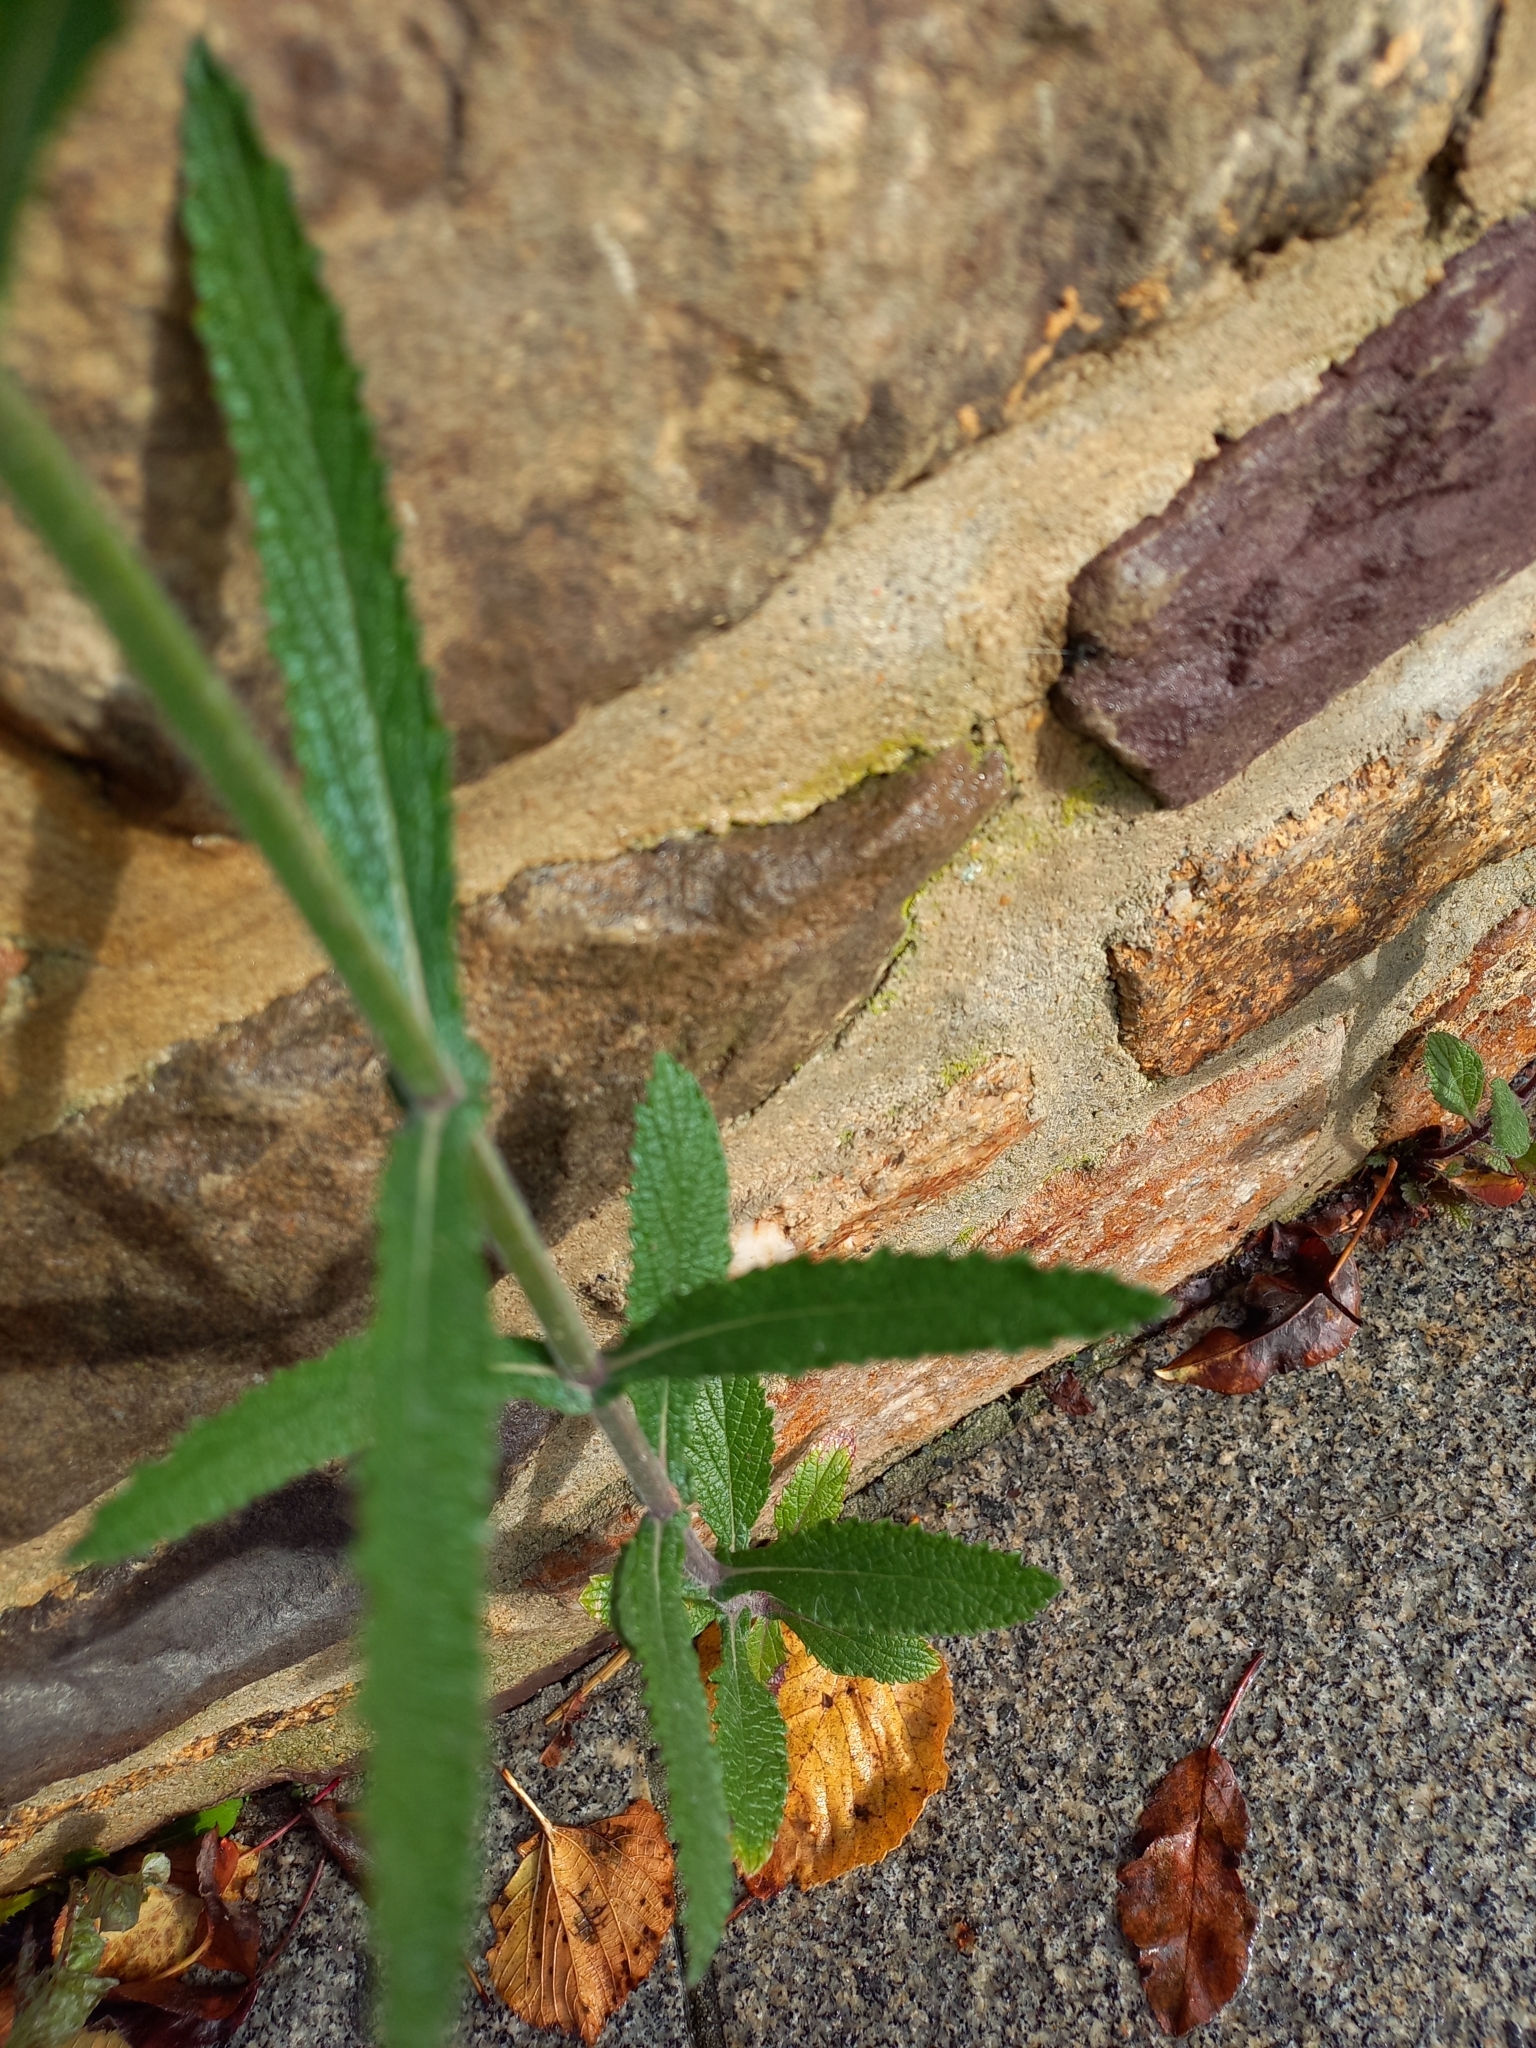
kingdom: Plantae
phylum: Tracheophyta
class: Magnoliopsida
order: Lamiales
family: Verbenaceae
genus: Verbena
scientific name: Verbena bonariensis
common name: Purpletop vervain
